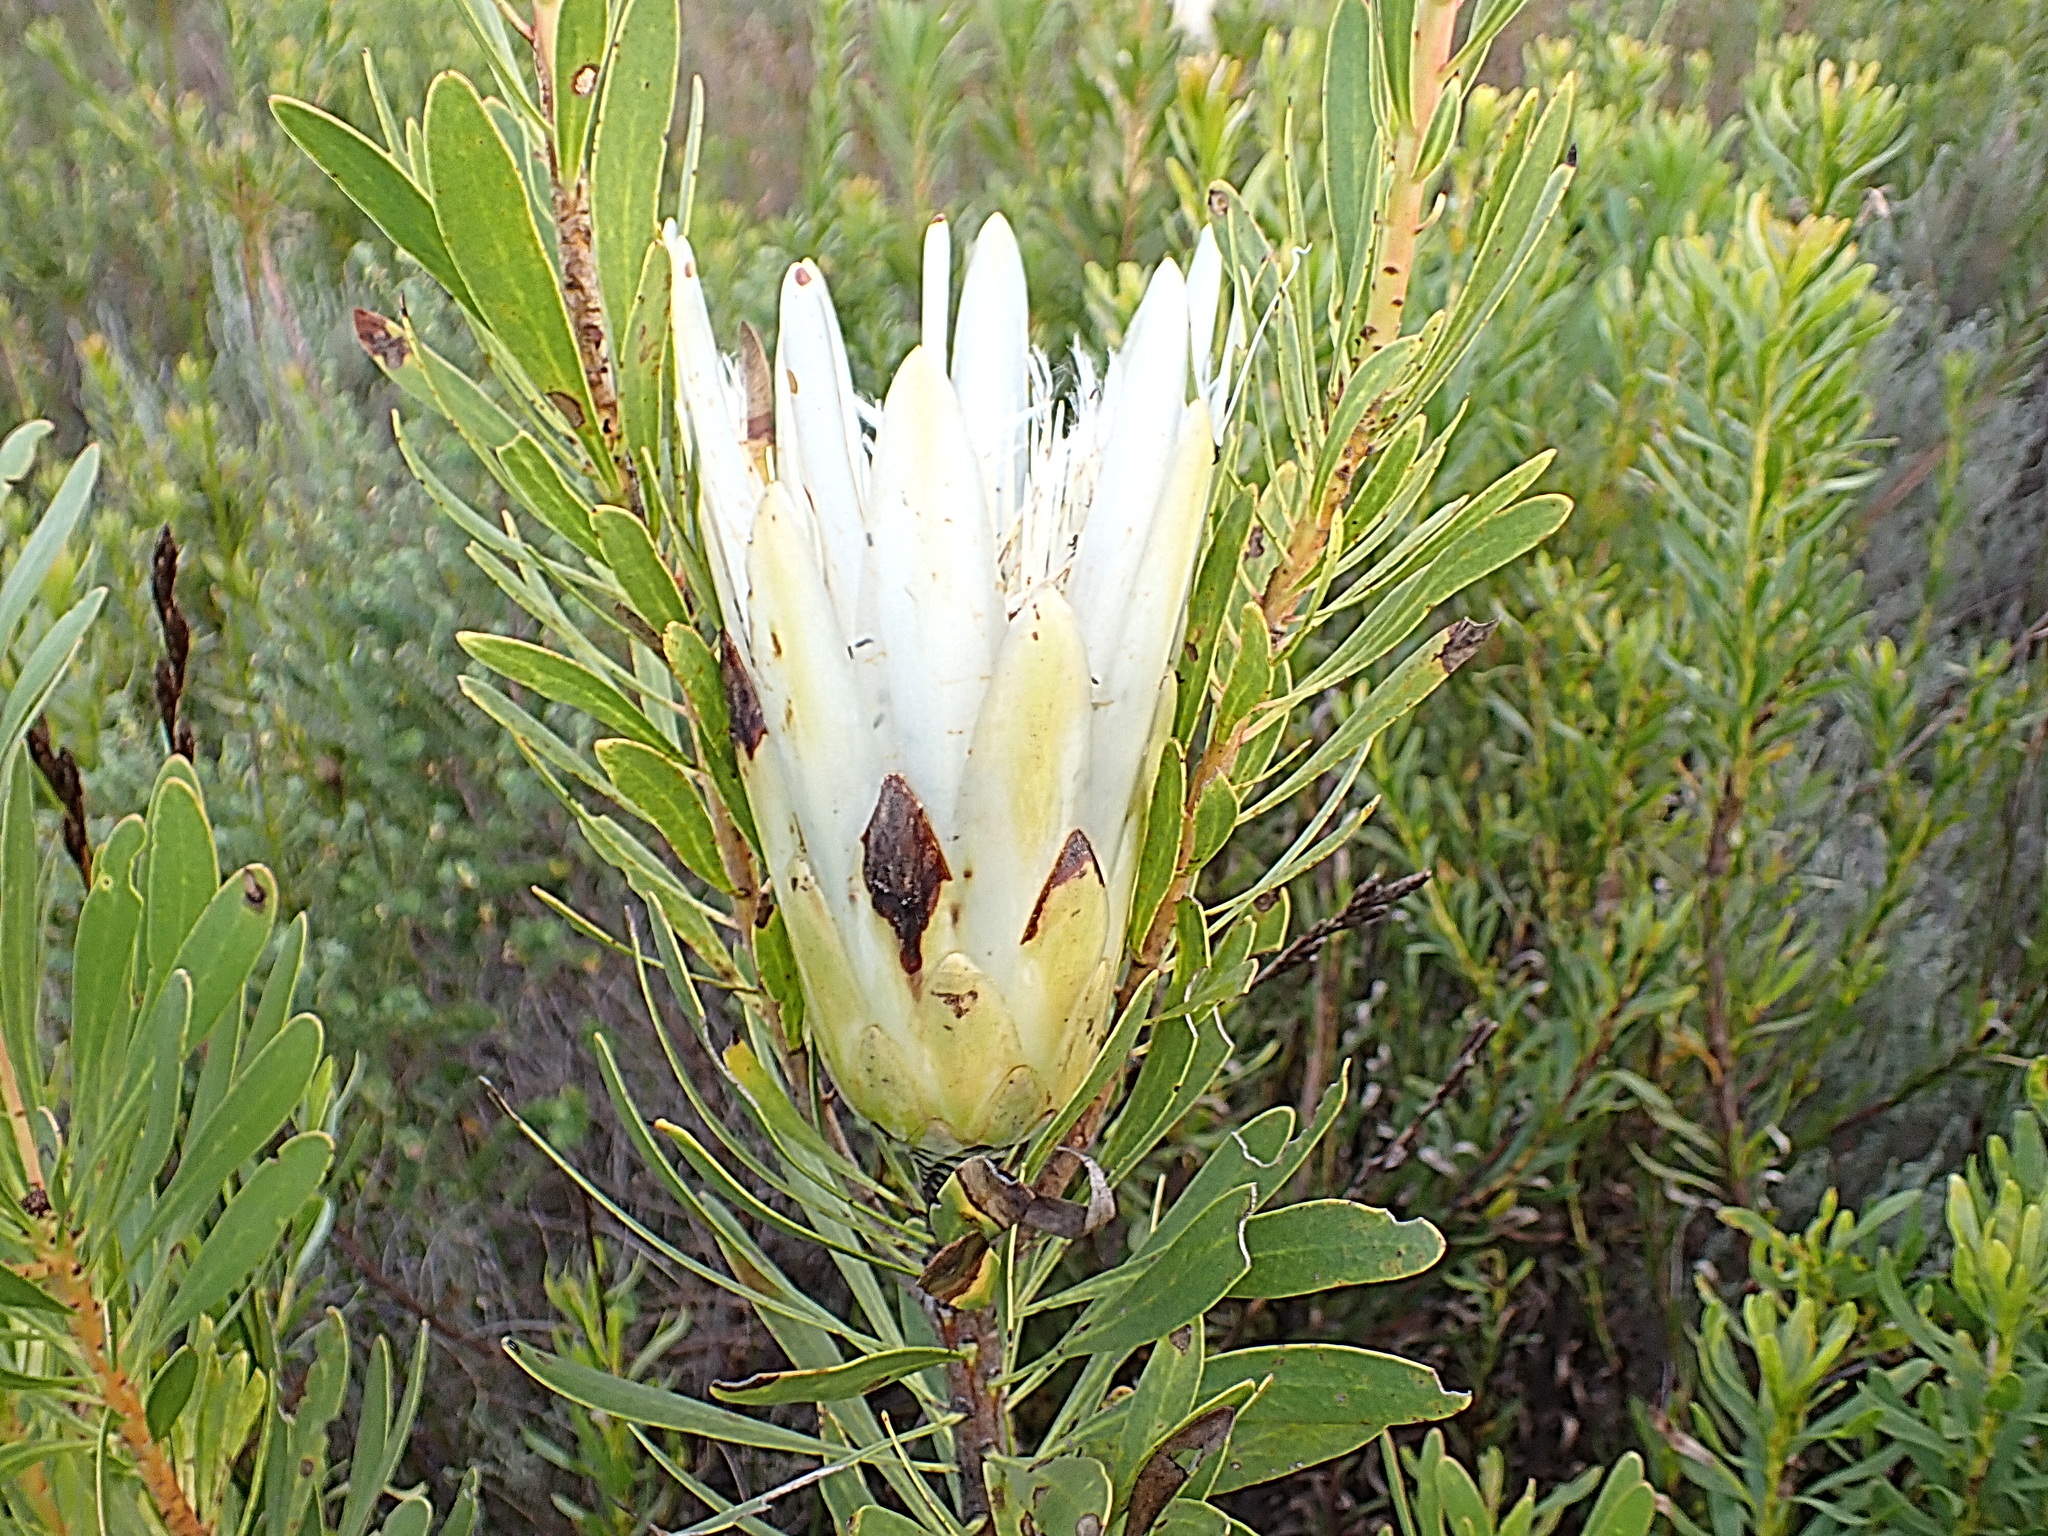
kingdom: Plantae
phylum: Tracheophyta
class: Magnoliopsida
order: Proteales
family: Proteaceae
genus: Protea
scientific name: Protea repens
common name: Sugarbush
